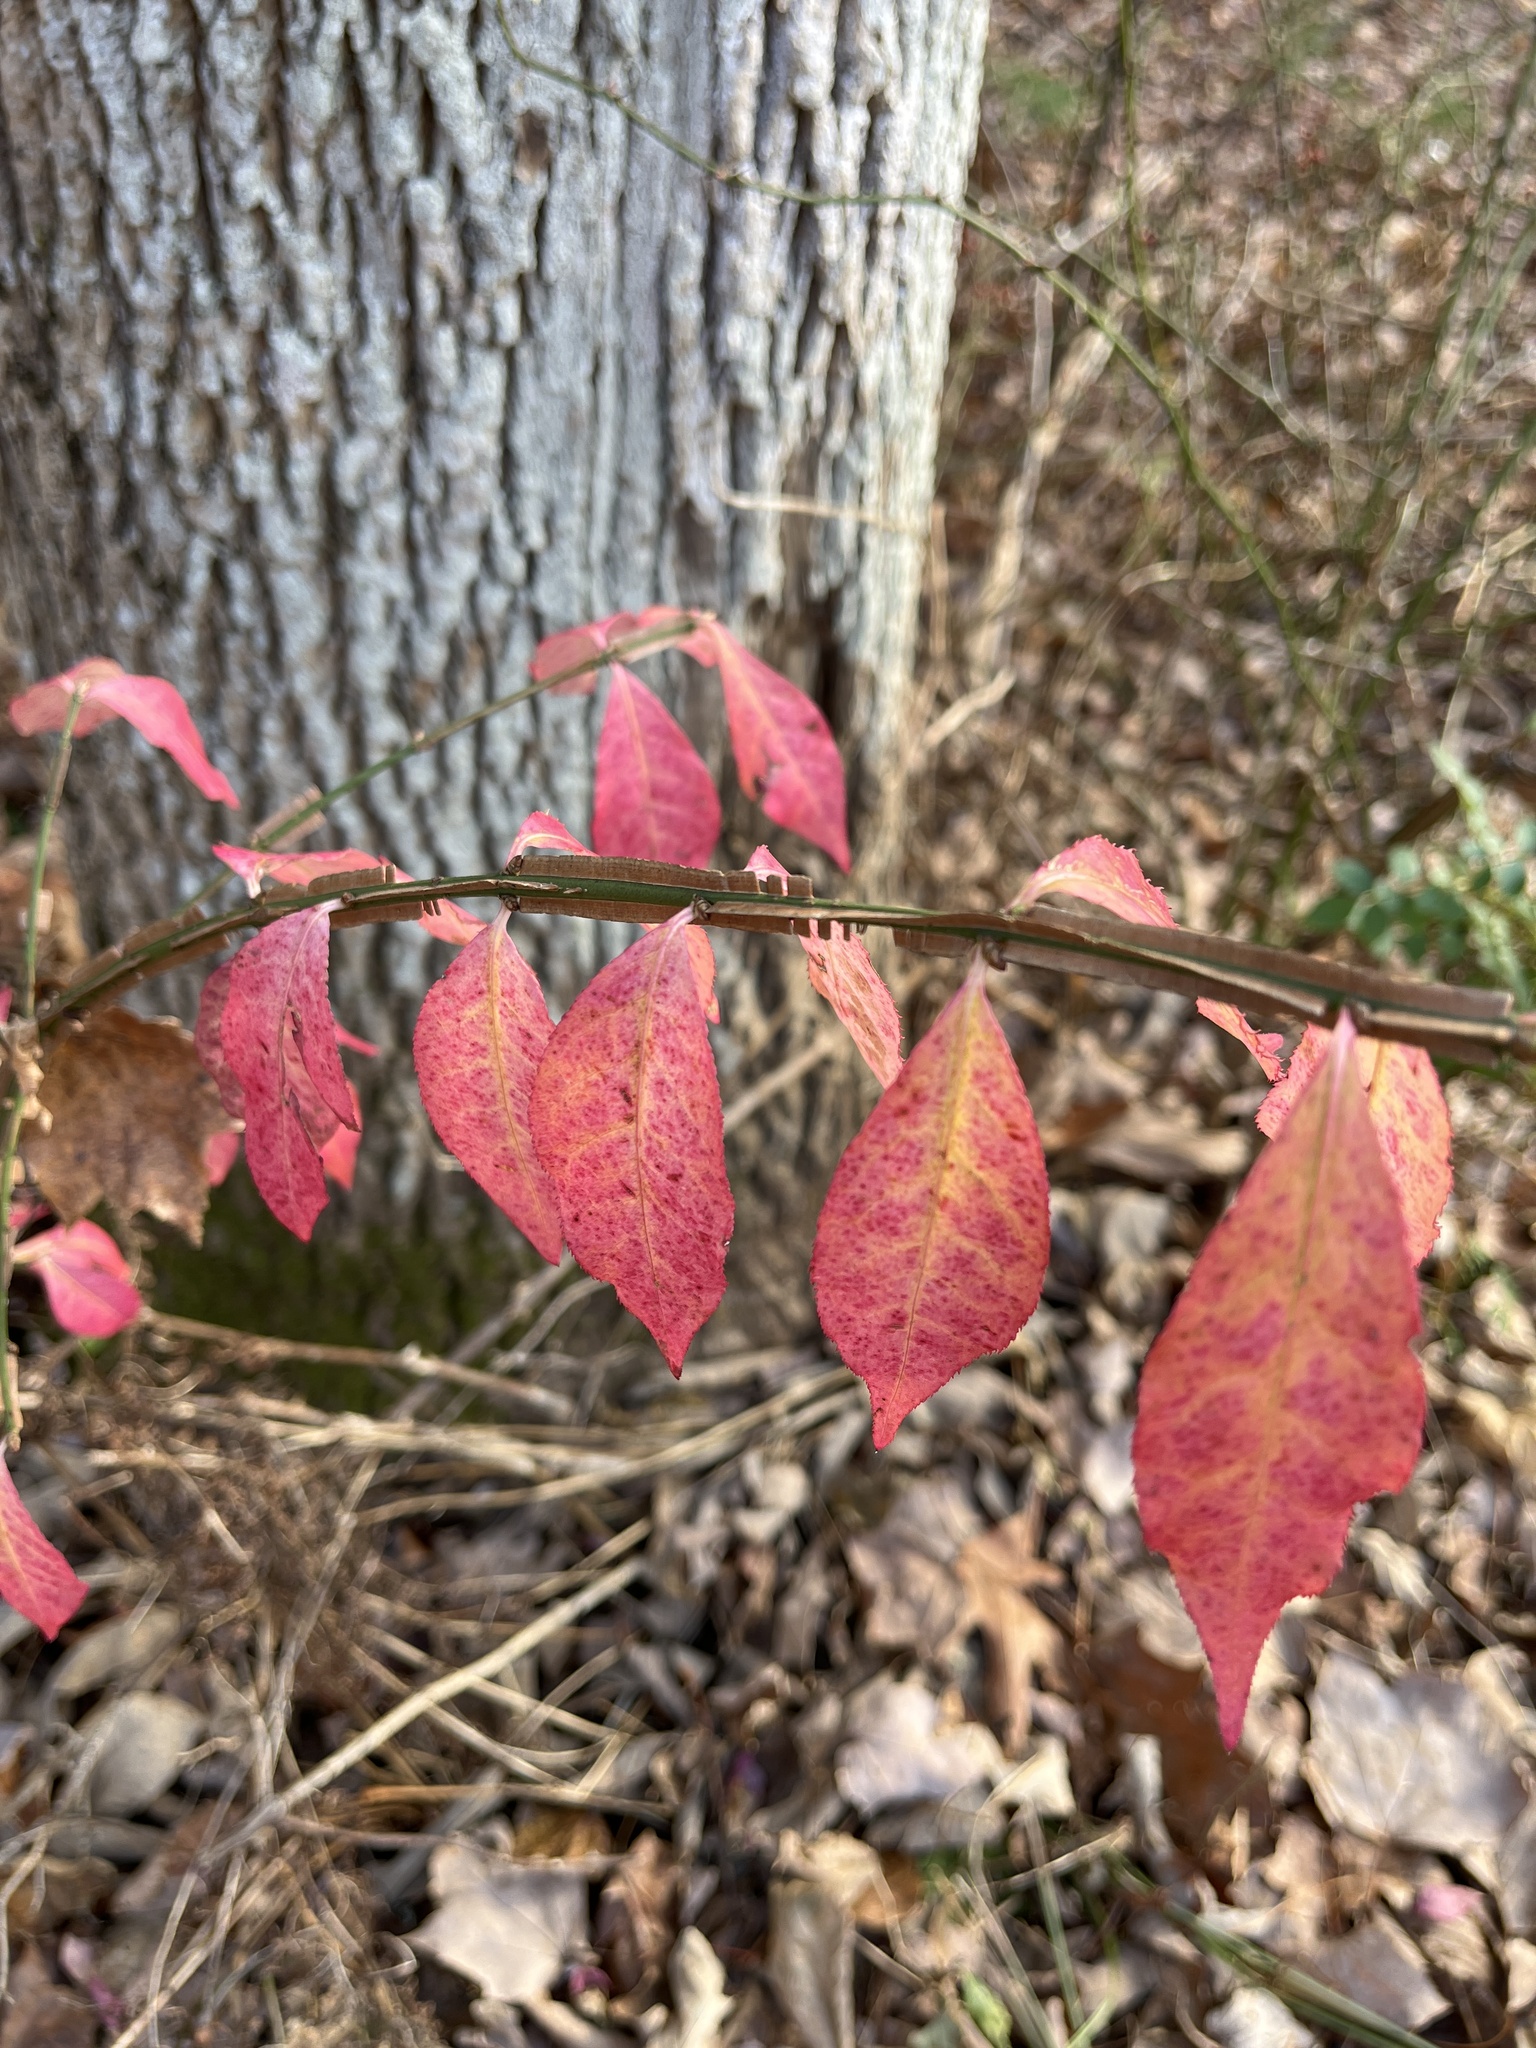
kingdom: Plantae
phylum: Tracheophyta
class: Magnoliopsida
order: Celastrales
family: Celastraceae
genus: Euonymus
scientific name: Euonymus alatus
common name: Winged euonymus
